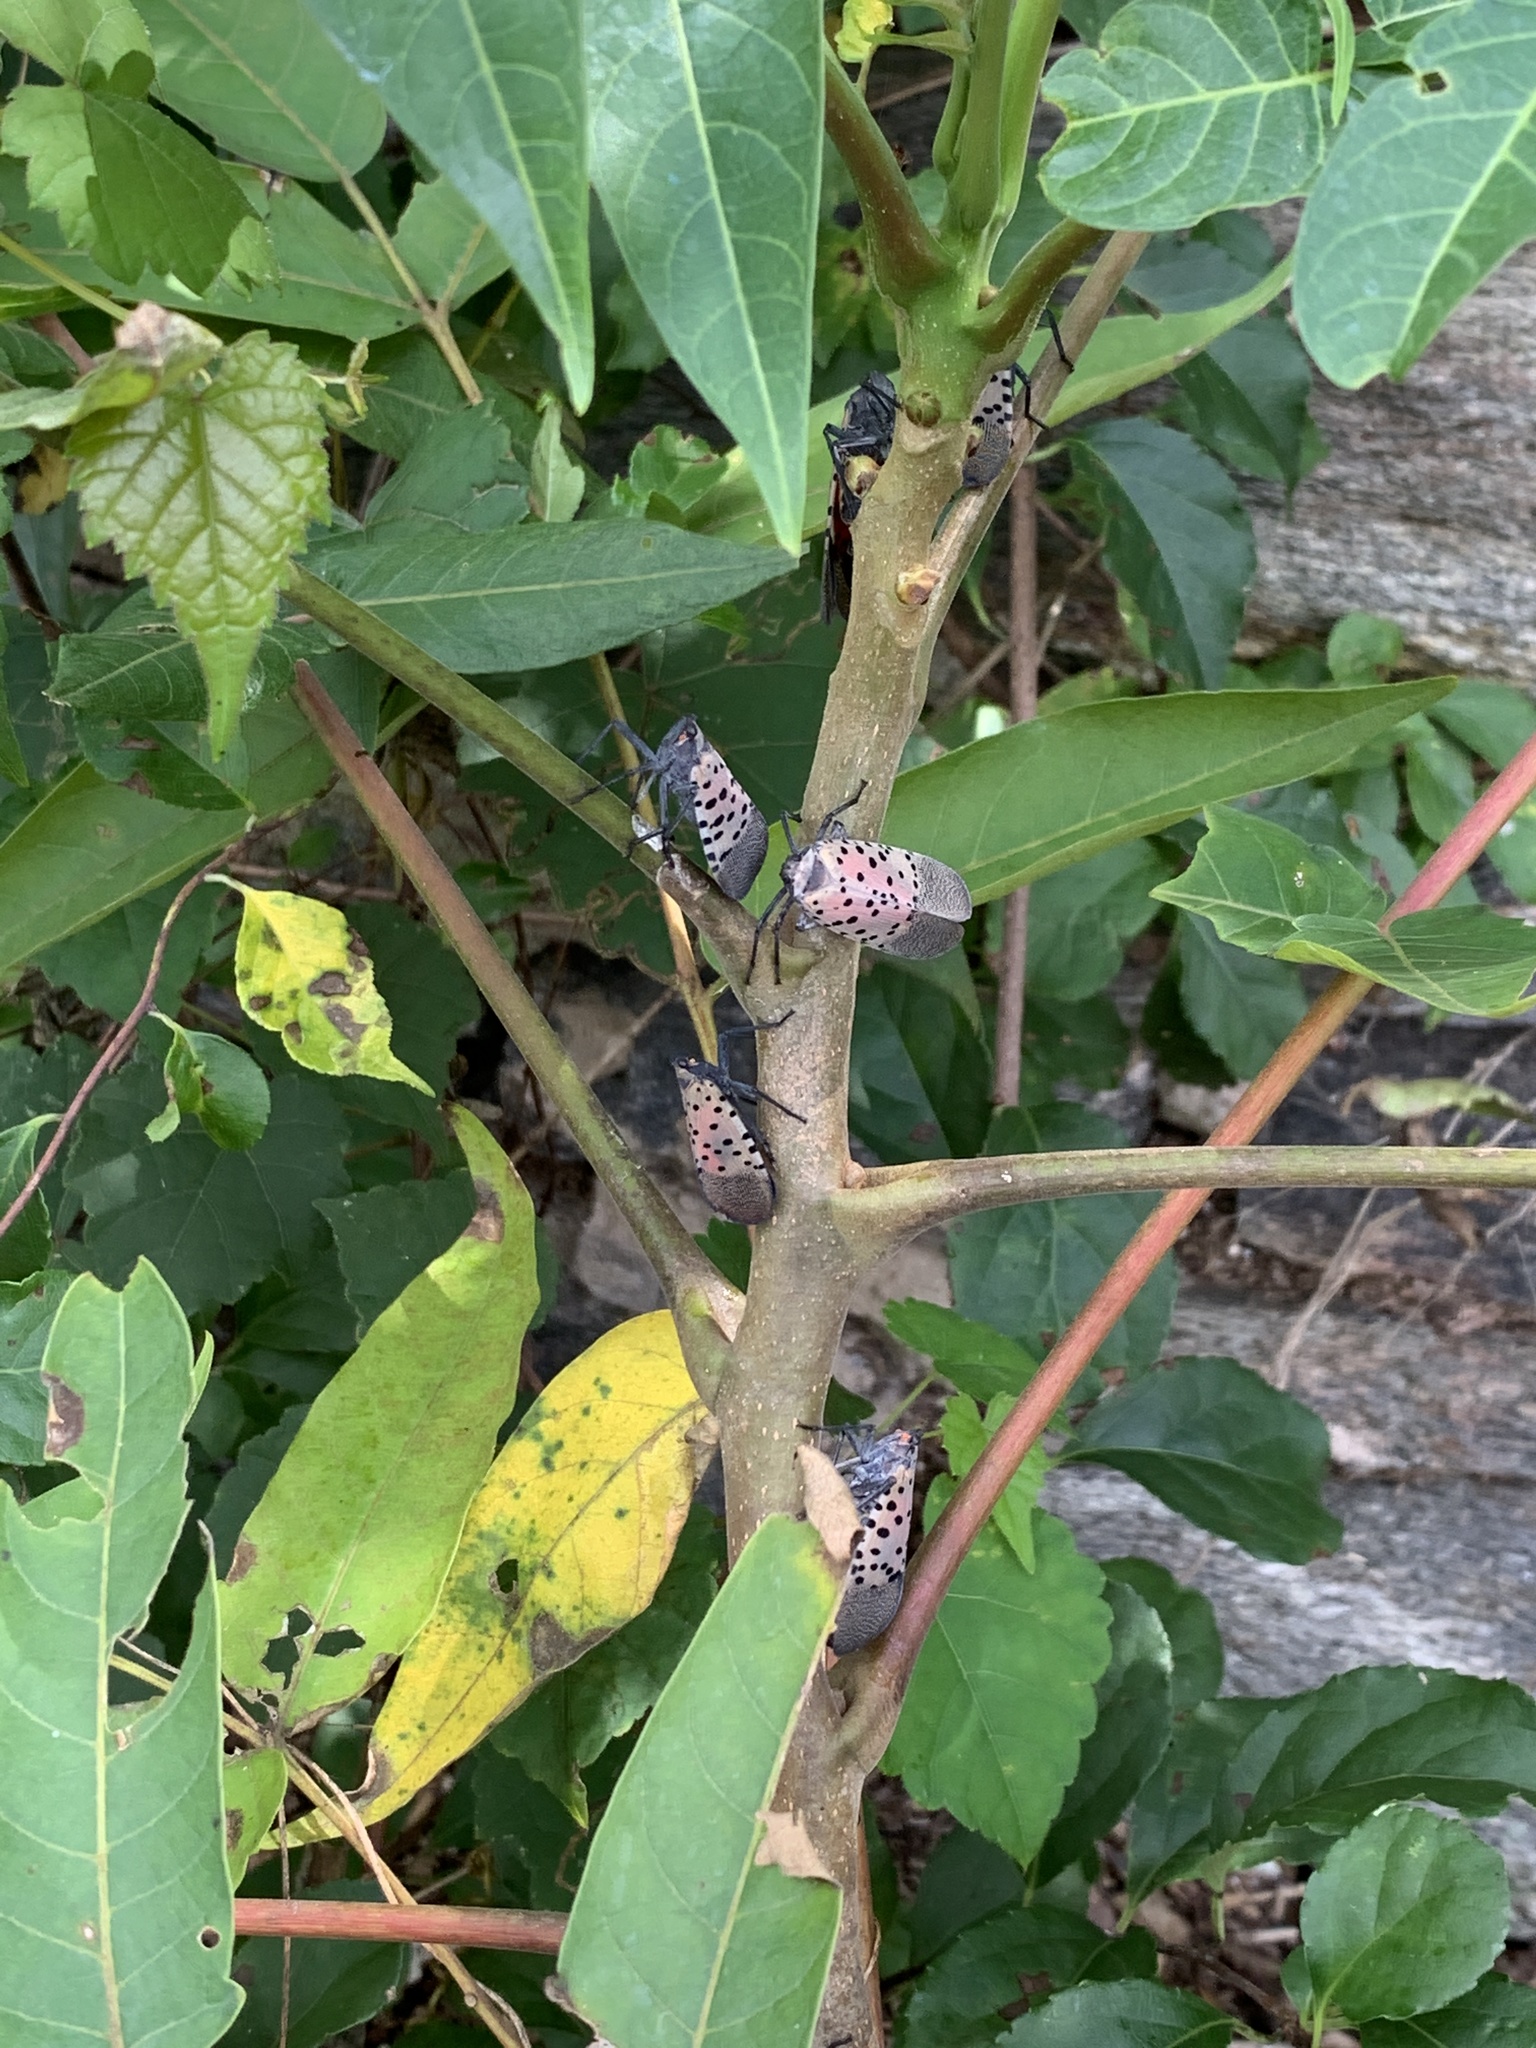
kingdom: Animalia
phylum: Arthropoda
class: Insecta
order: Hemiptera
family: Fulgoridae
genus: Lycorma
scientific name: Lycorma delicatula
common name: Spotted lanternfly
